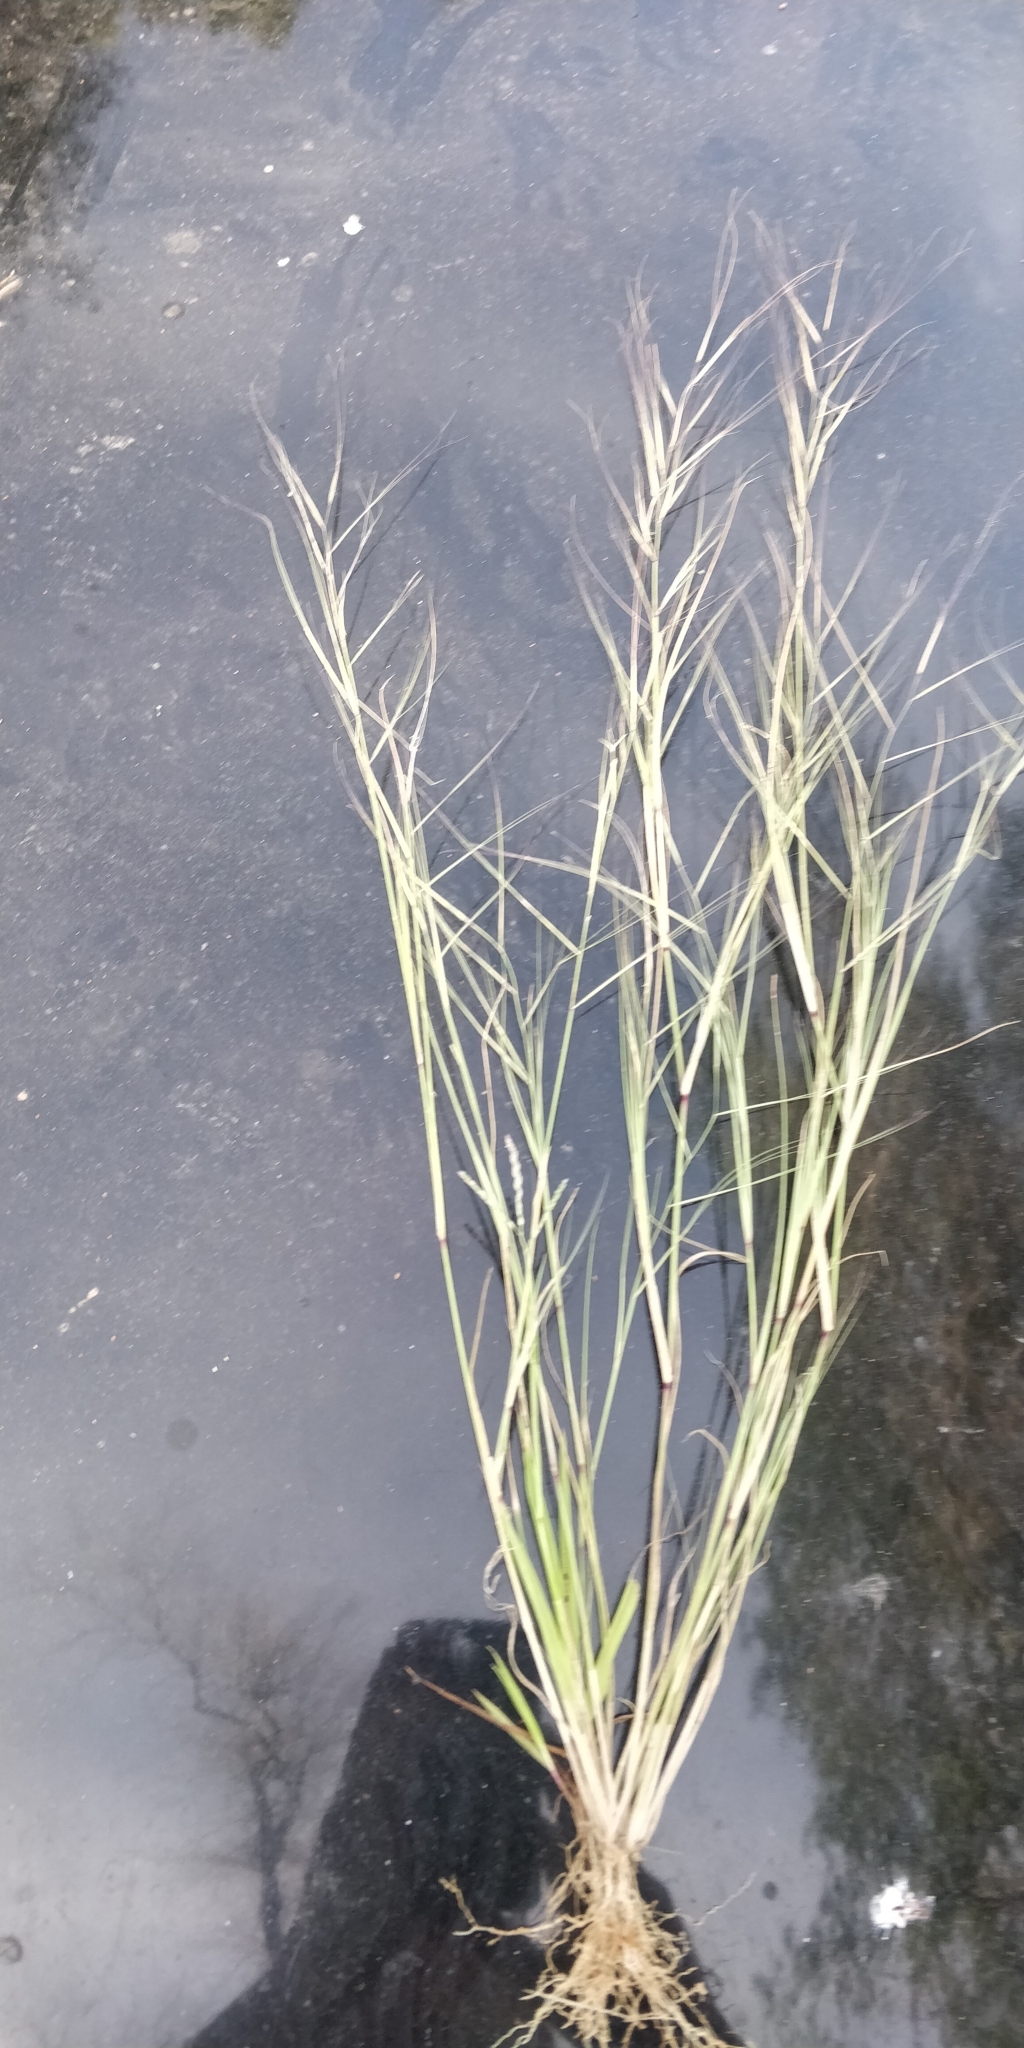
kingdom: Plantae
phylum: Tracheophyta
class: Liliopsida
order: Poales
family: Poaceae
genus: Aristida
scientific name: Aristida oligantha
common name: Few-flowered aristida
